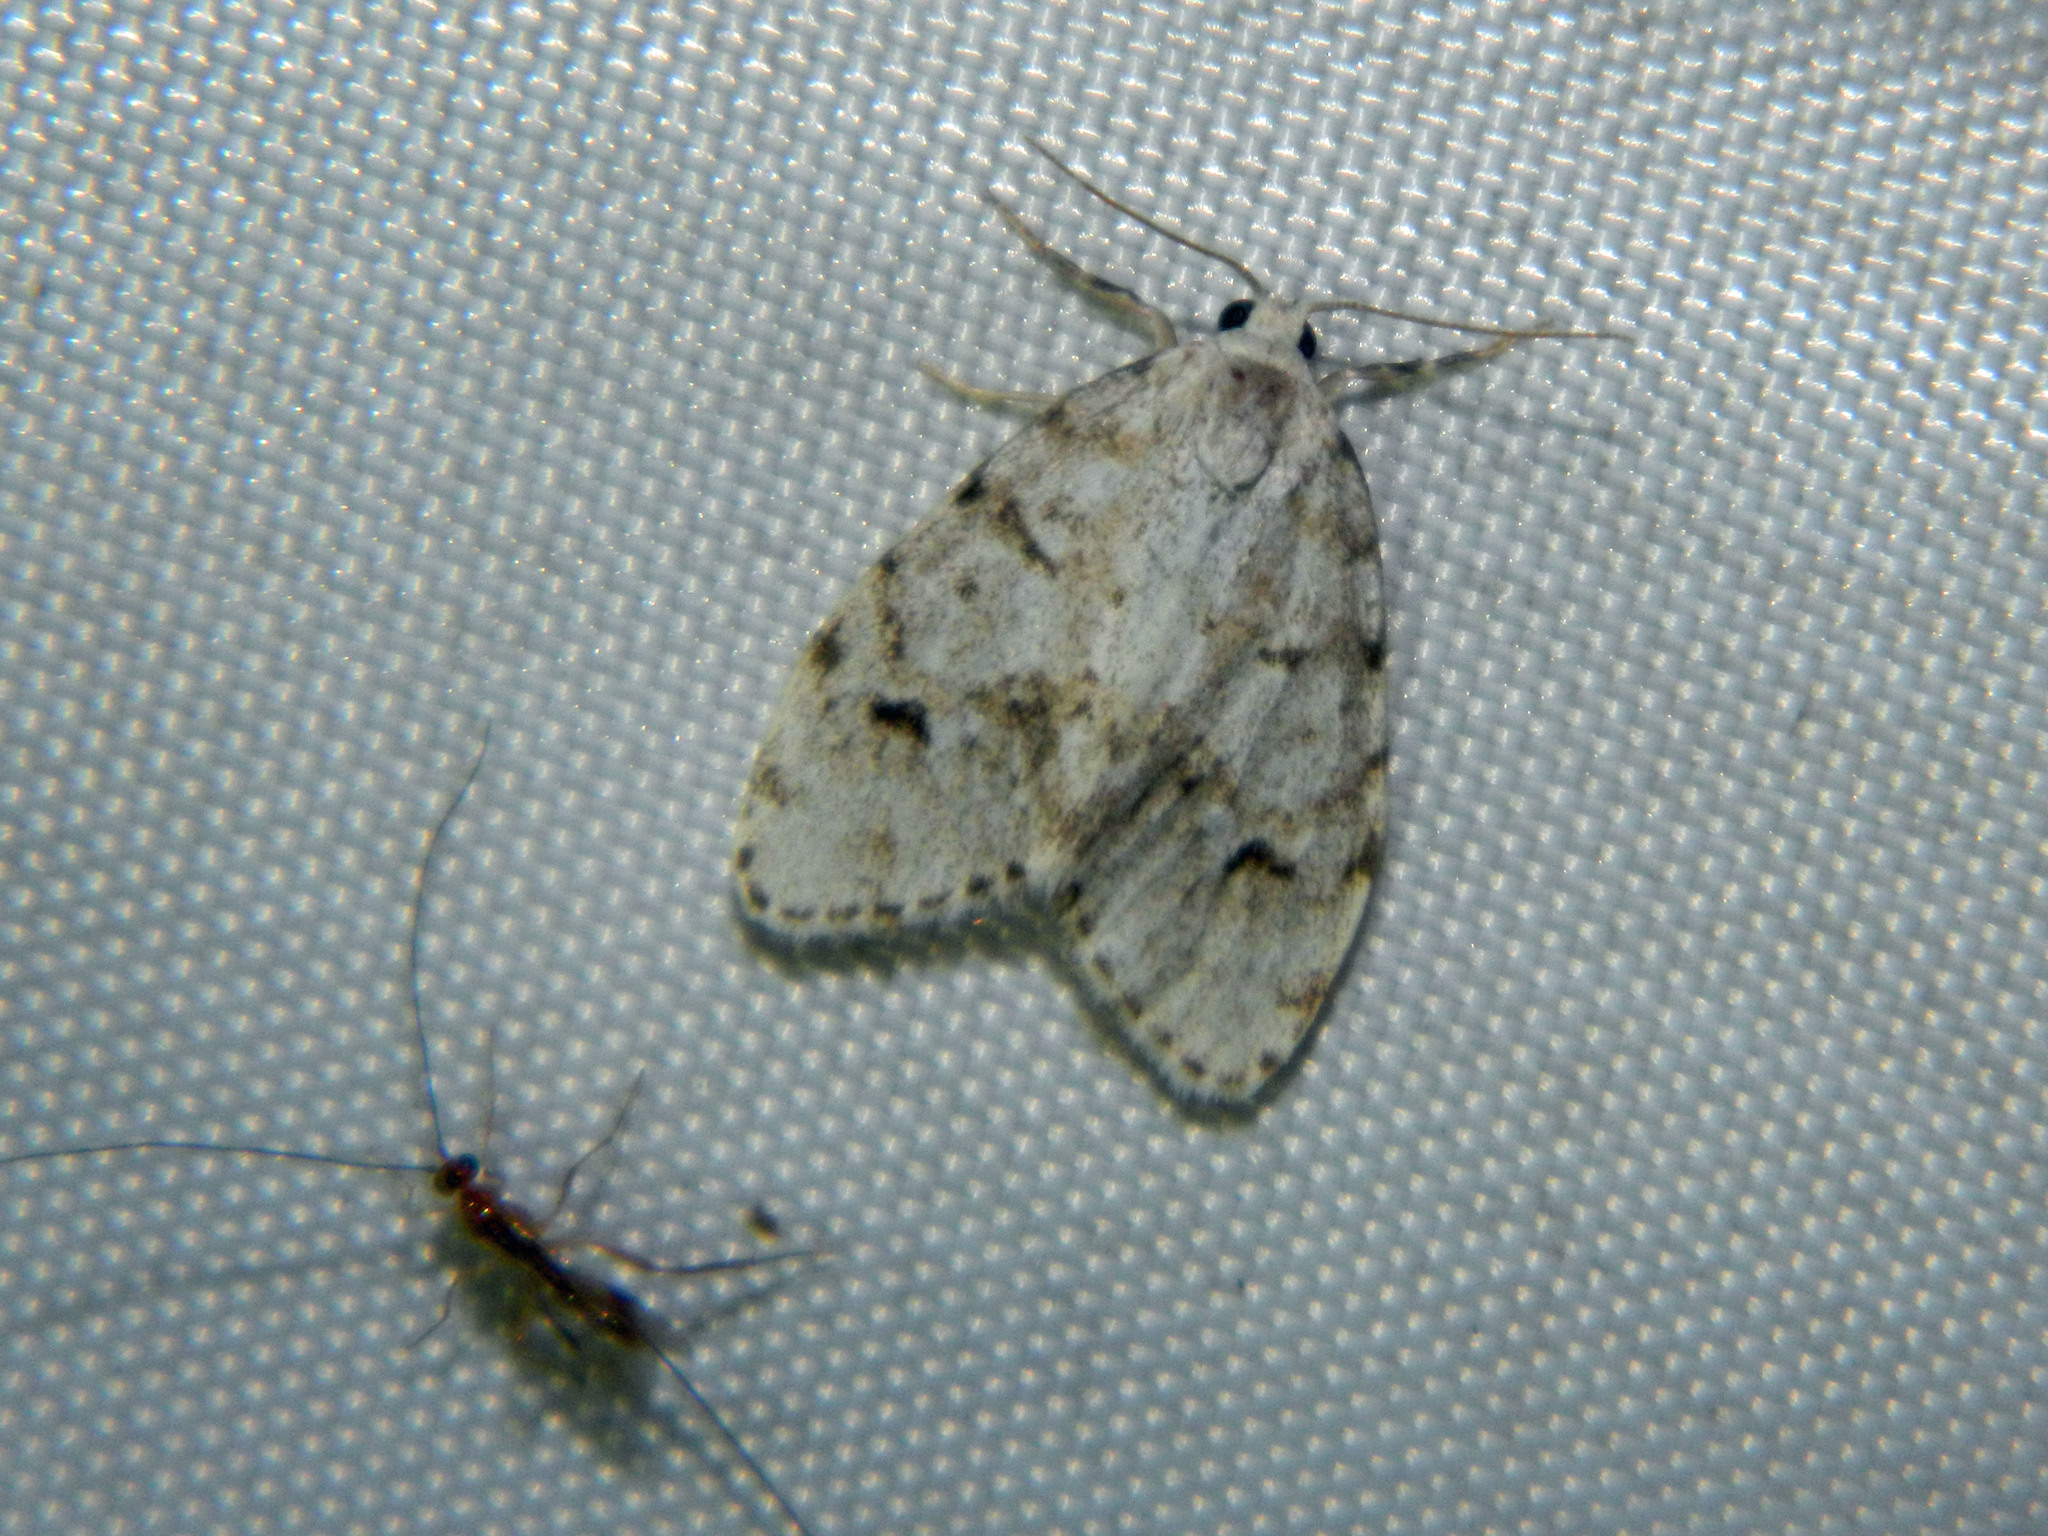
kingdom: Animalia
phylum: Arthropoda
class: Insecta
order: Lepidoptera
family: Erebidae
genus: Clemensia
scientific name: Clemensia umbrata
